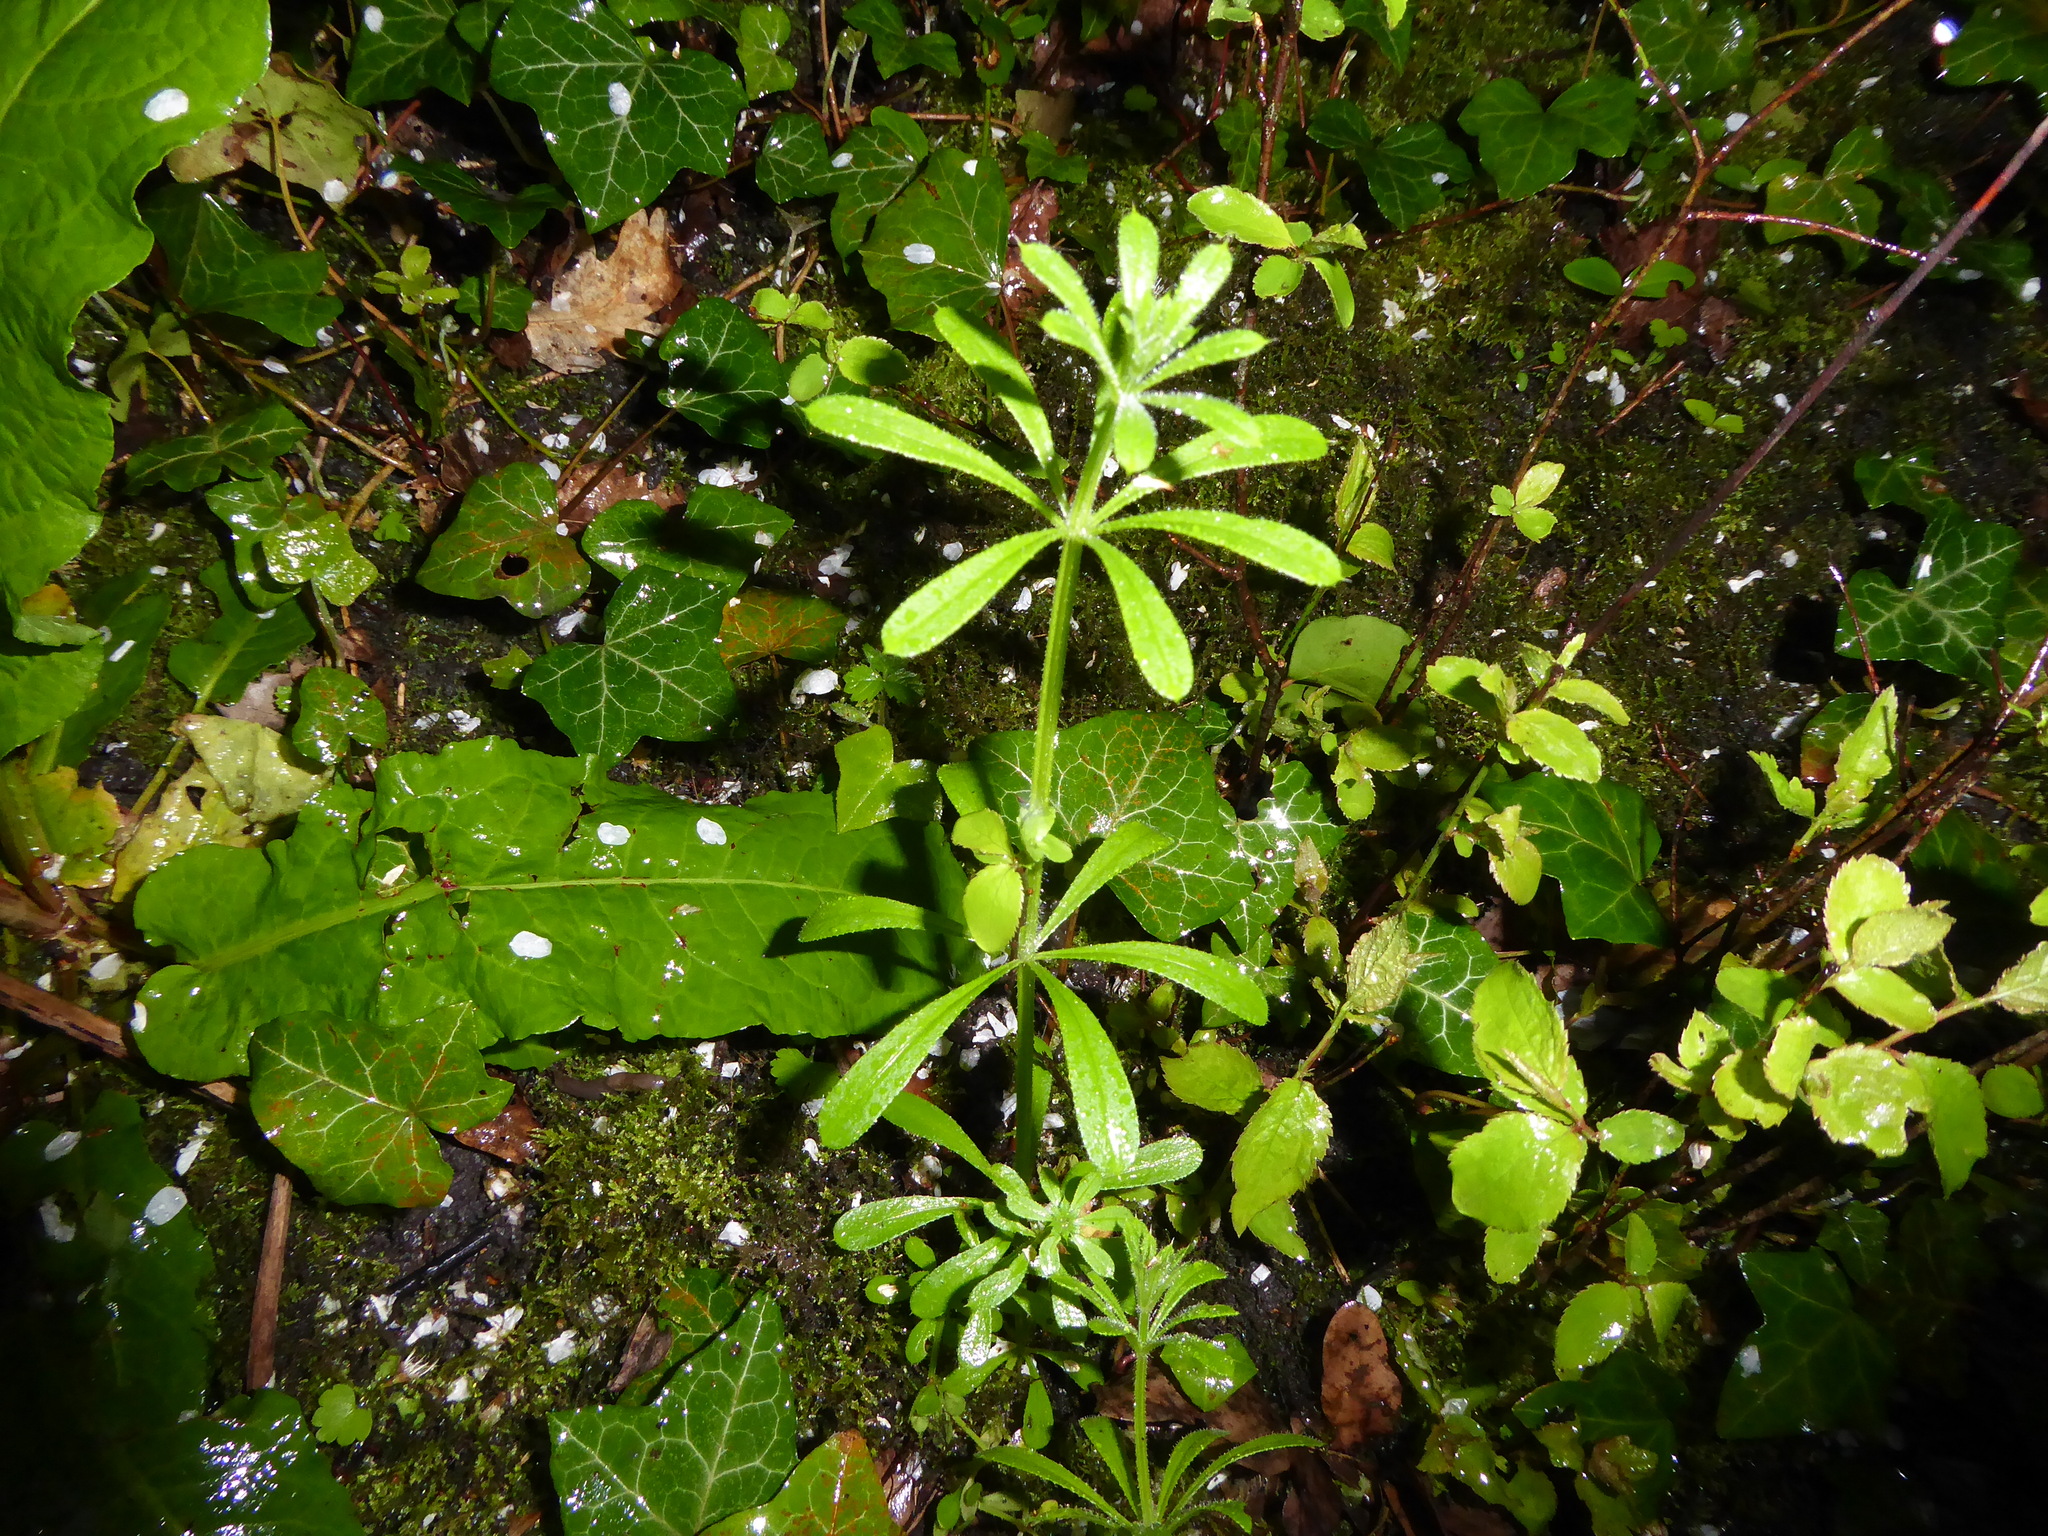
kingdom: Plantae
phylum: Tracheophyta
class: Magnoliopsida
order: Gentianales
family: Rubiaceae
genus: Galium
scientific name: Galium aparine
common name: Cleavers
